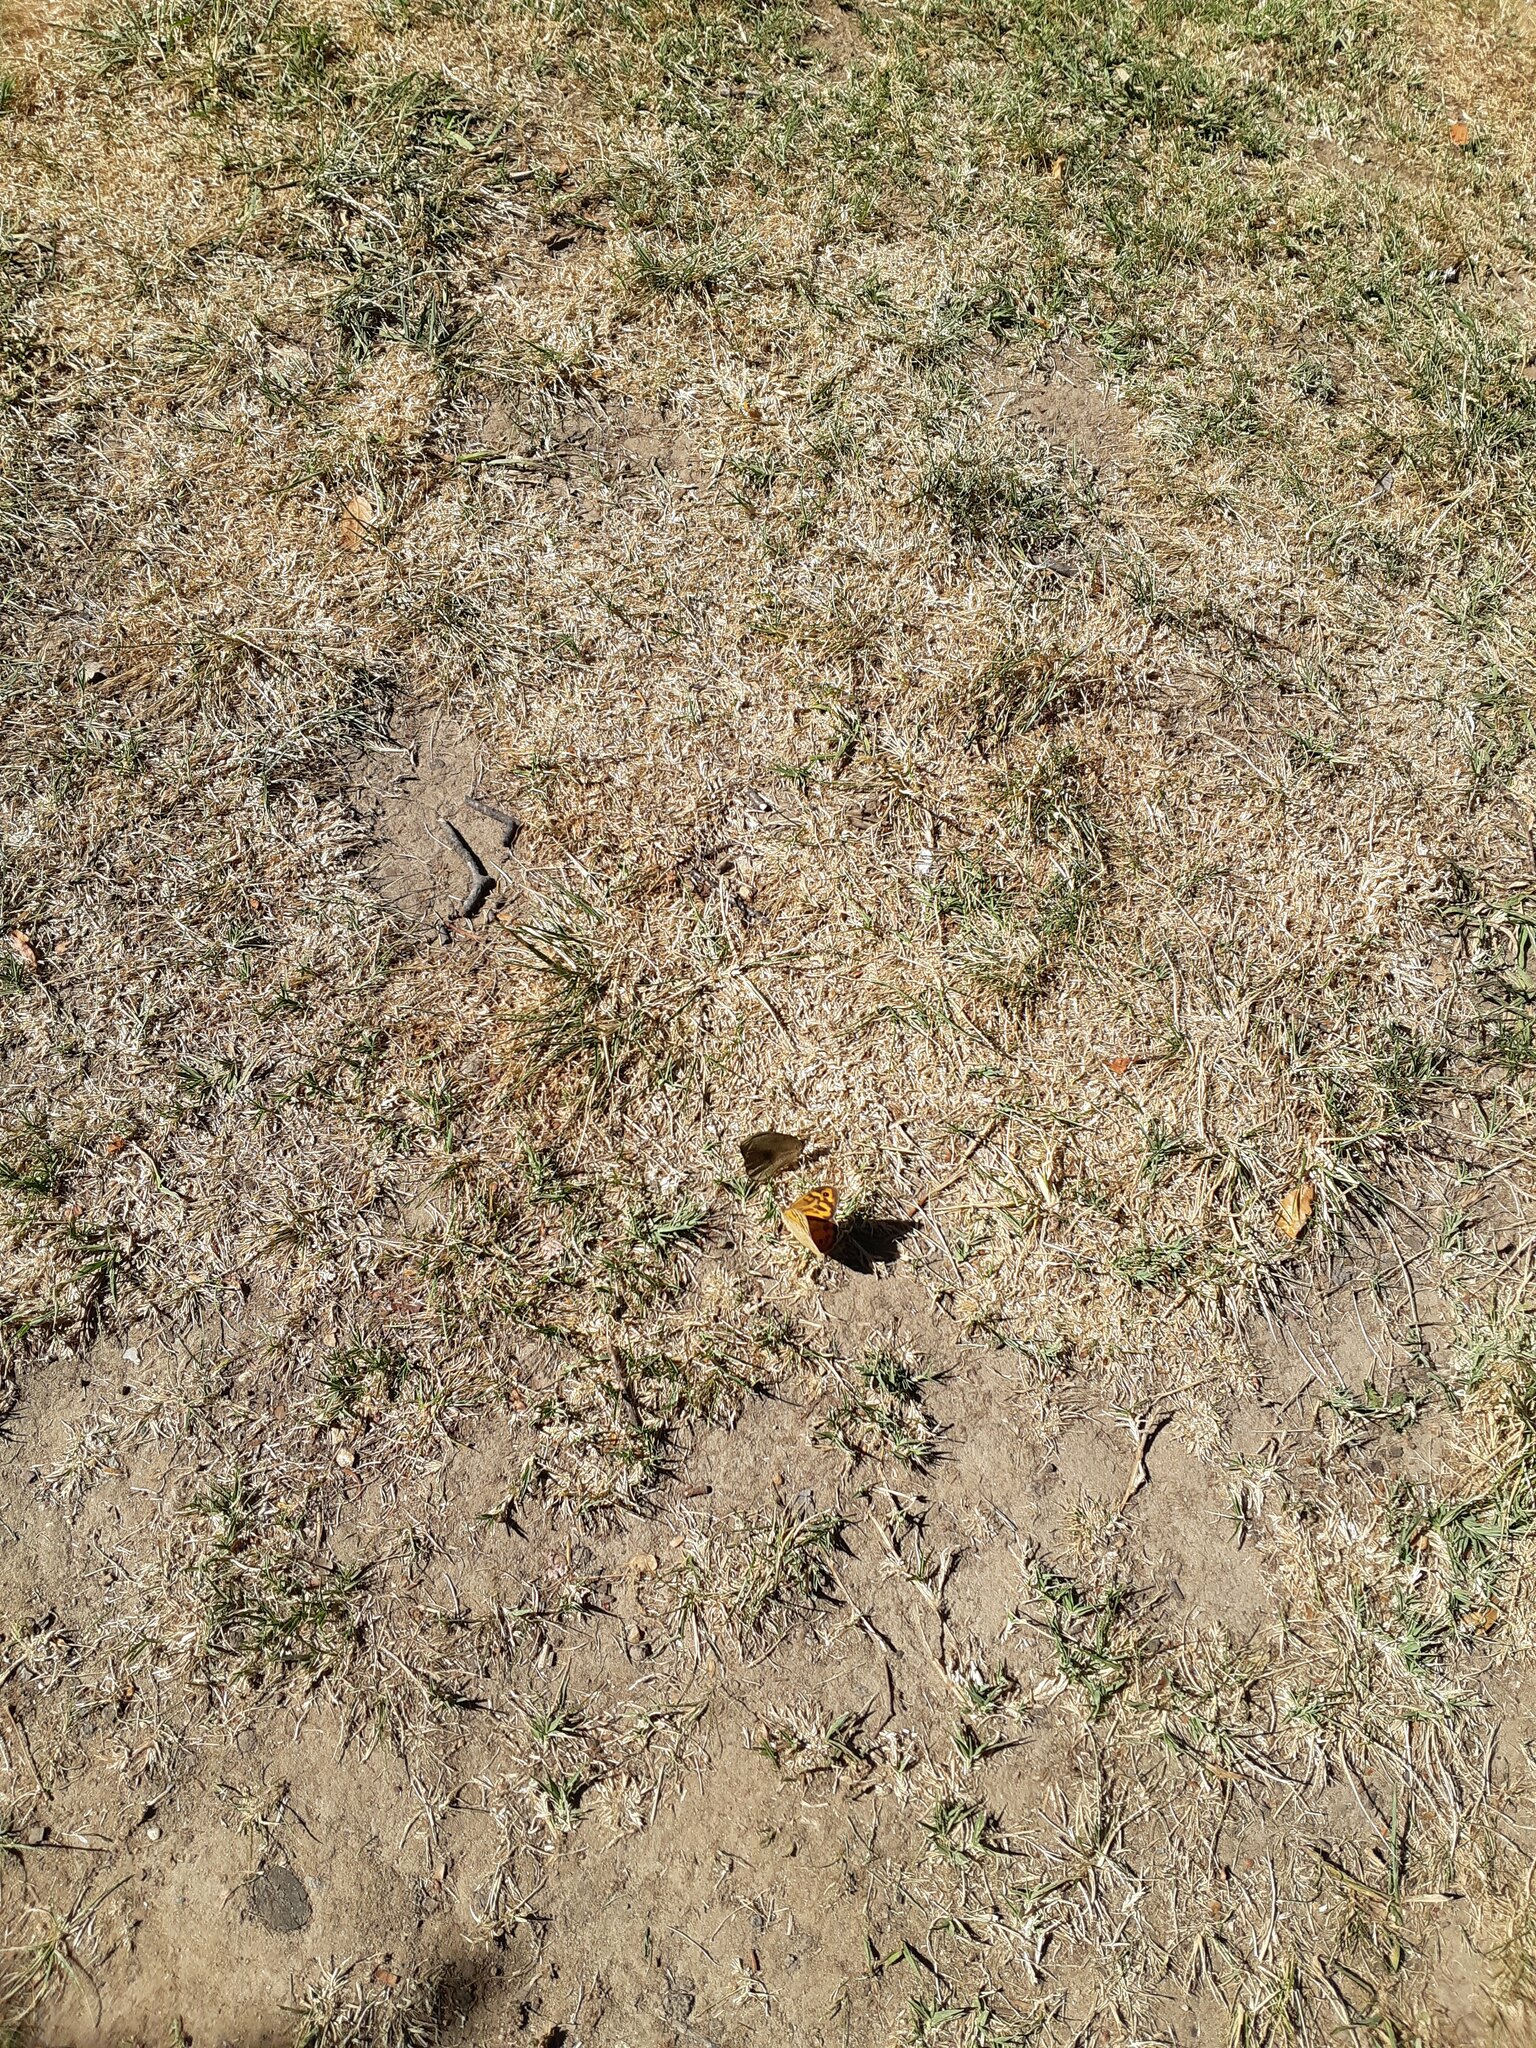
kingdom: Animalia
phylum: Arthropoda
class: Insecta
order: Lepidoptera
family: Nymphalidae
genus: Heteronympha
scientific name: Heteronympha merope
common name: Common brown
